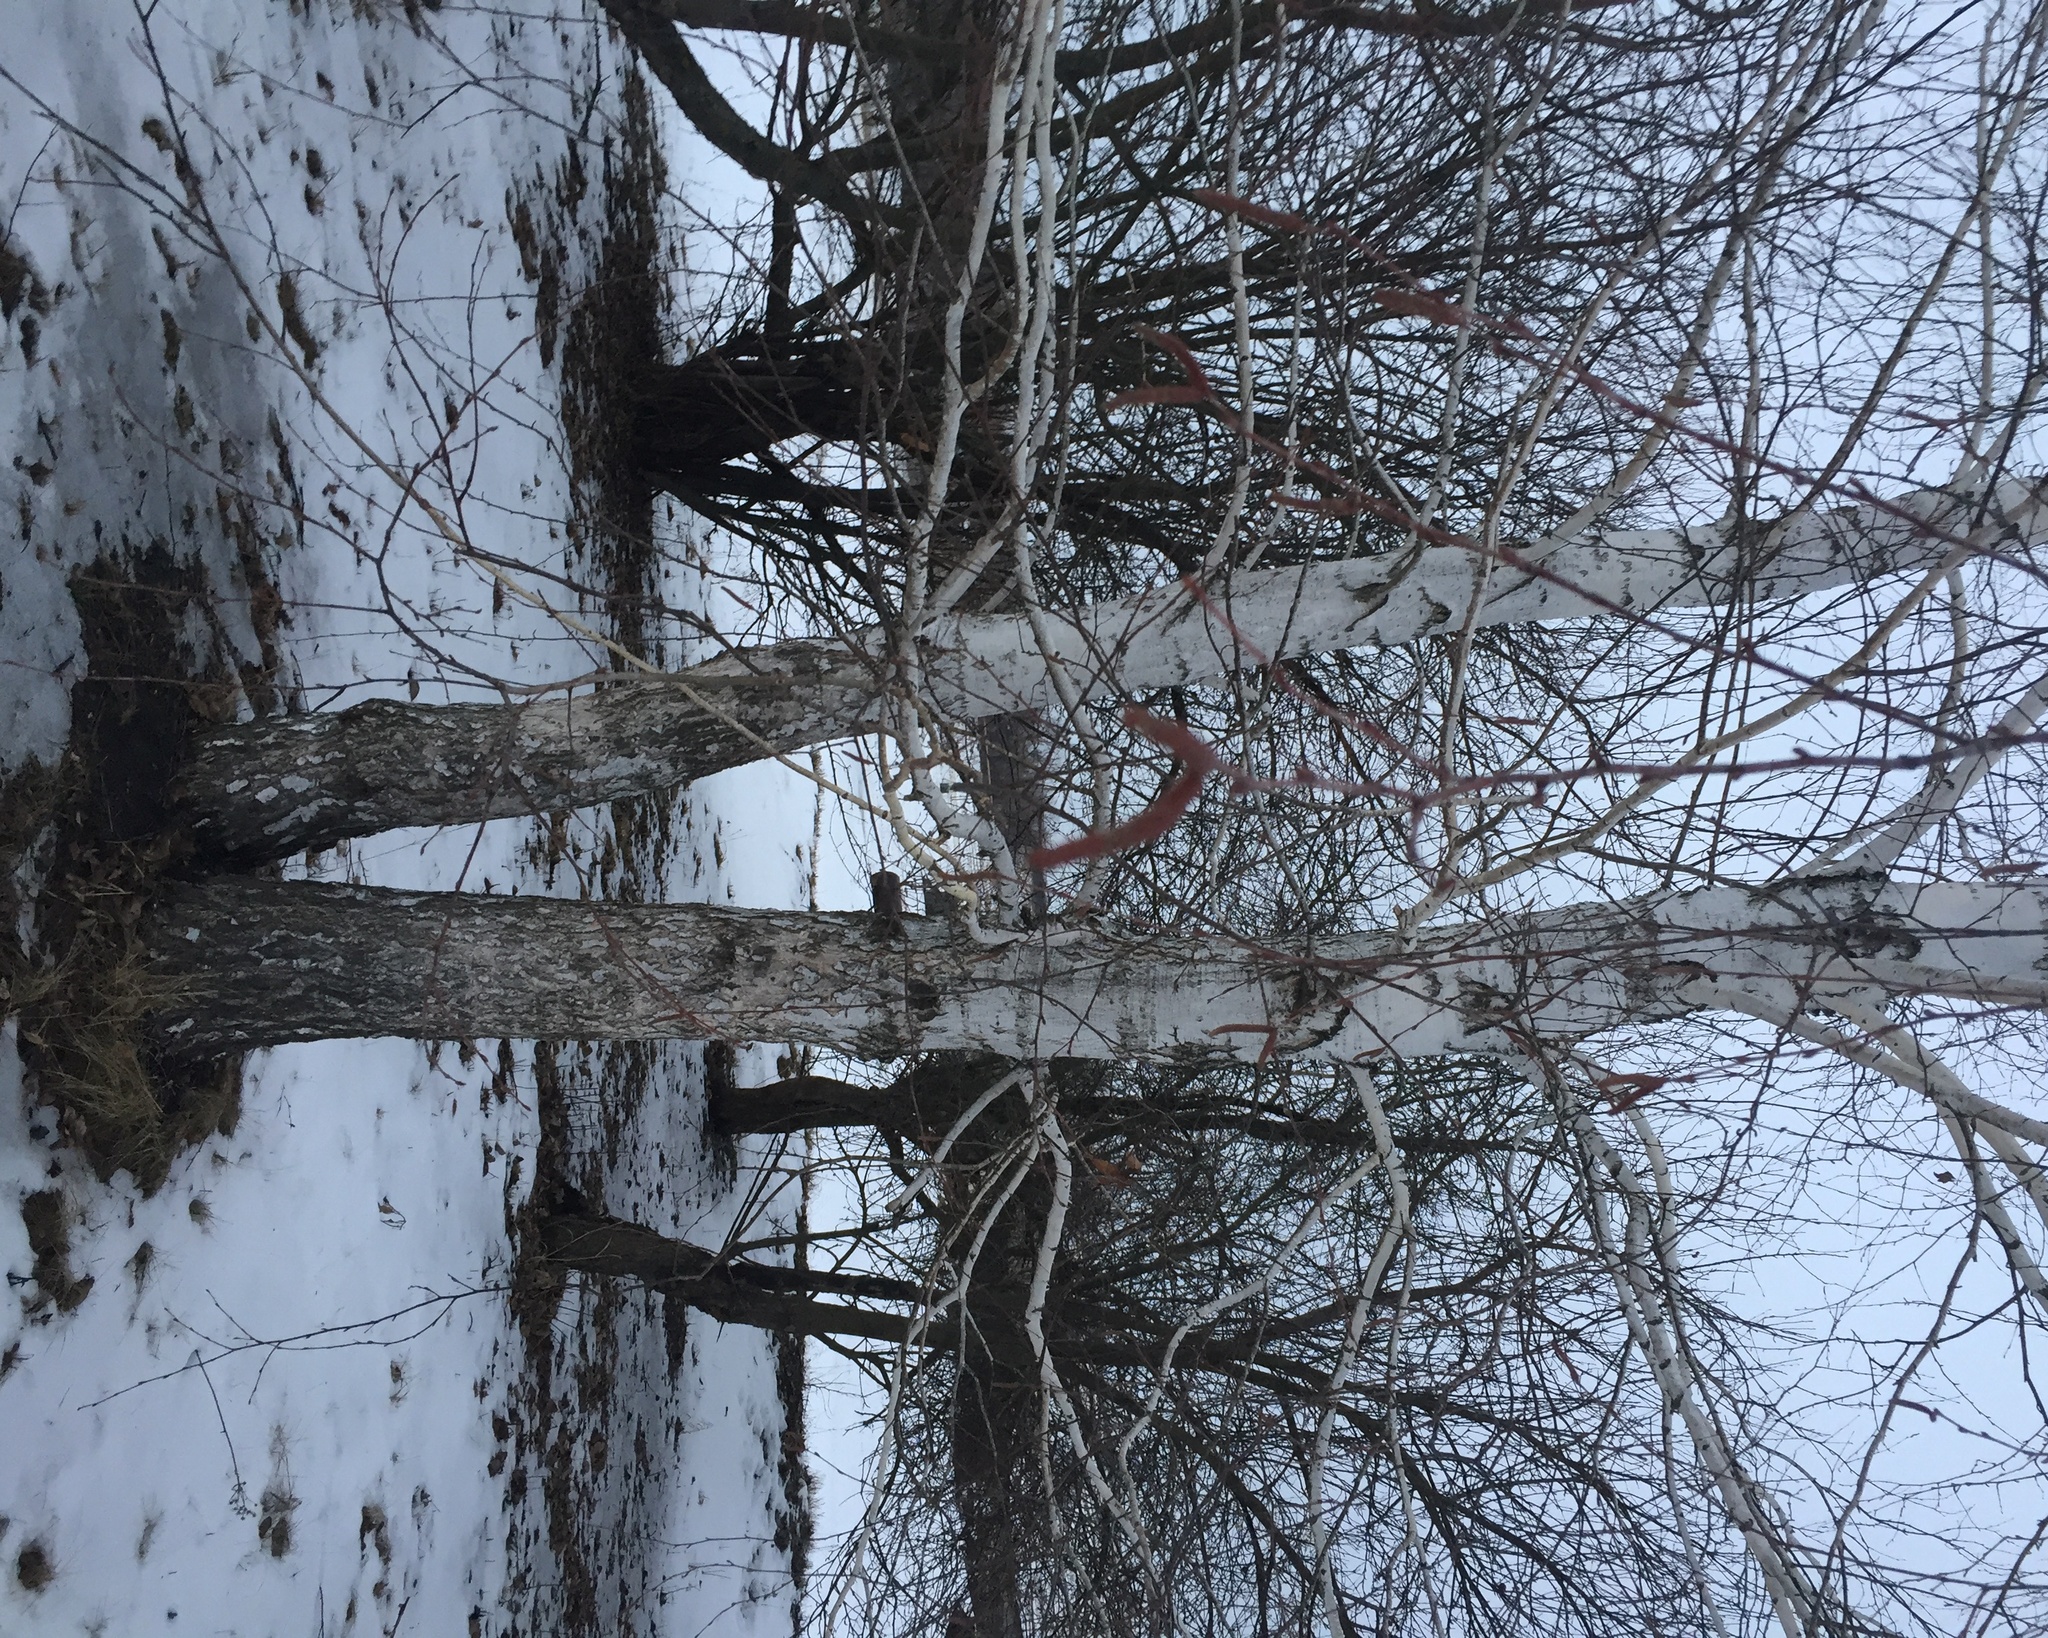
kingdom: Plantae
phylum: Tracheophyta
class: Magnoliopsida
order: Fagales
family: Betulaceae
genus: Betula
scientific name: Betula pendula
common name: Silver birch
